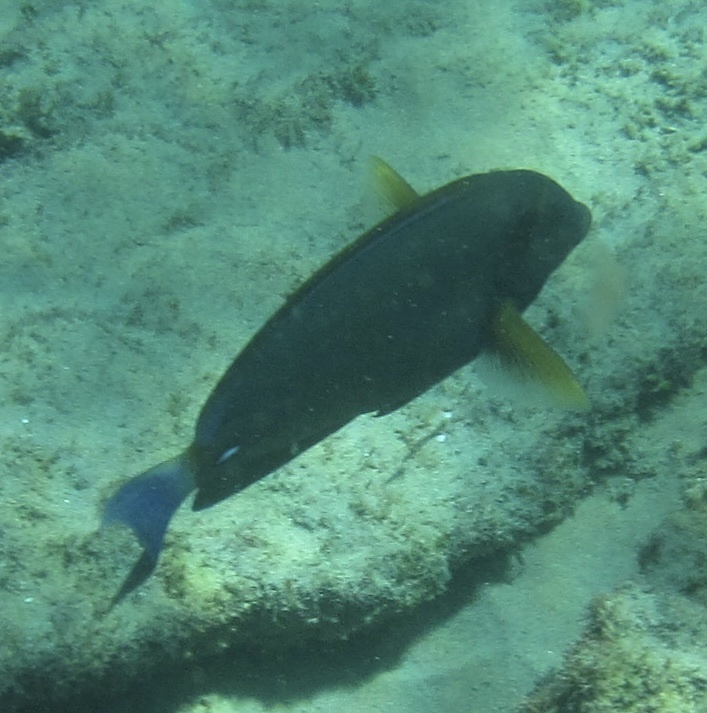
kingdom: Animalia
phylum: Chordata
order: Perciformes
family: Acanthuridae
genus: Acanthurus
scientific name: Acanthurus dussumieri
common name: Dussumier's surgeonfish
